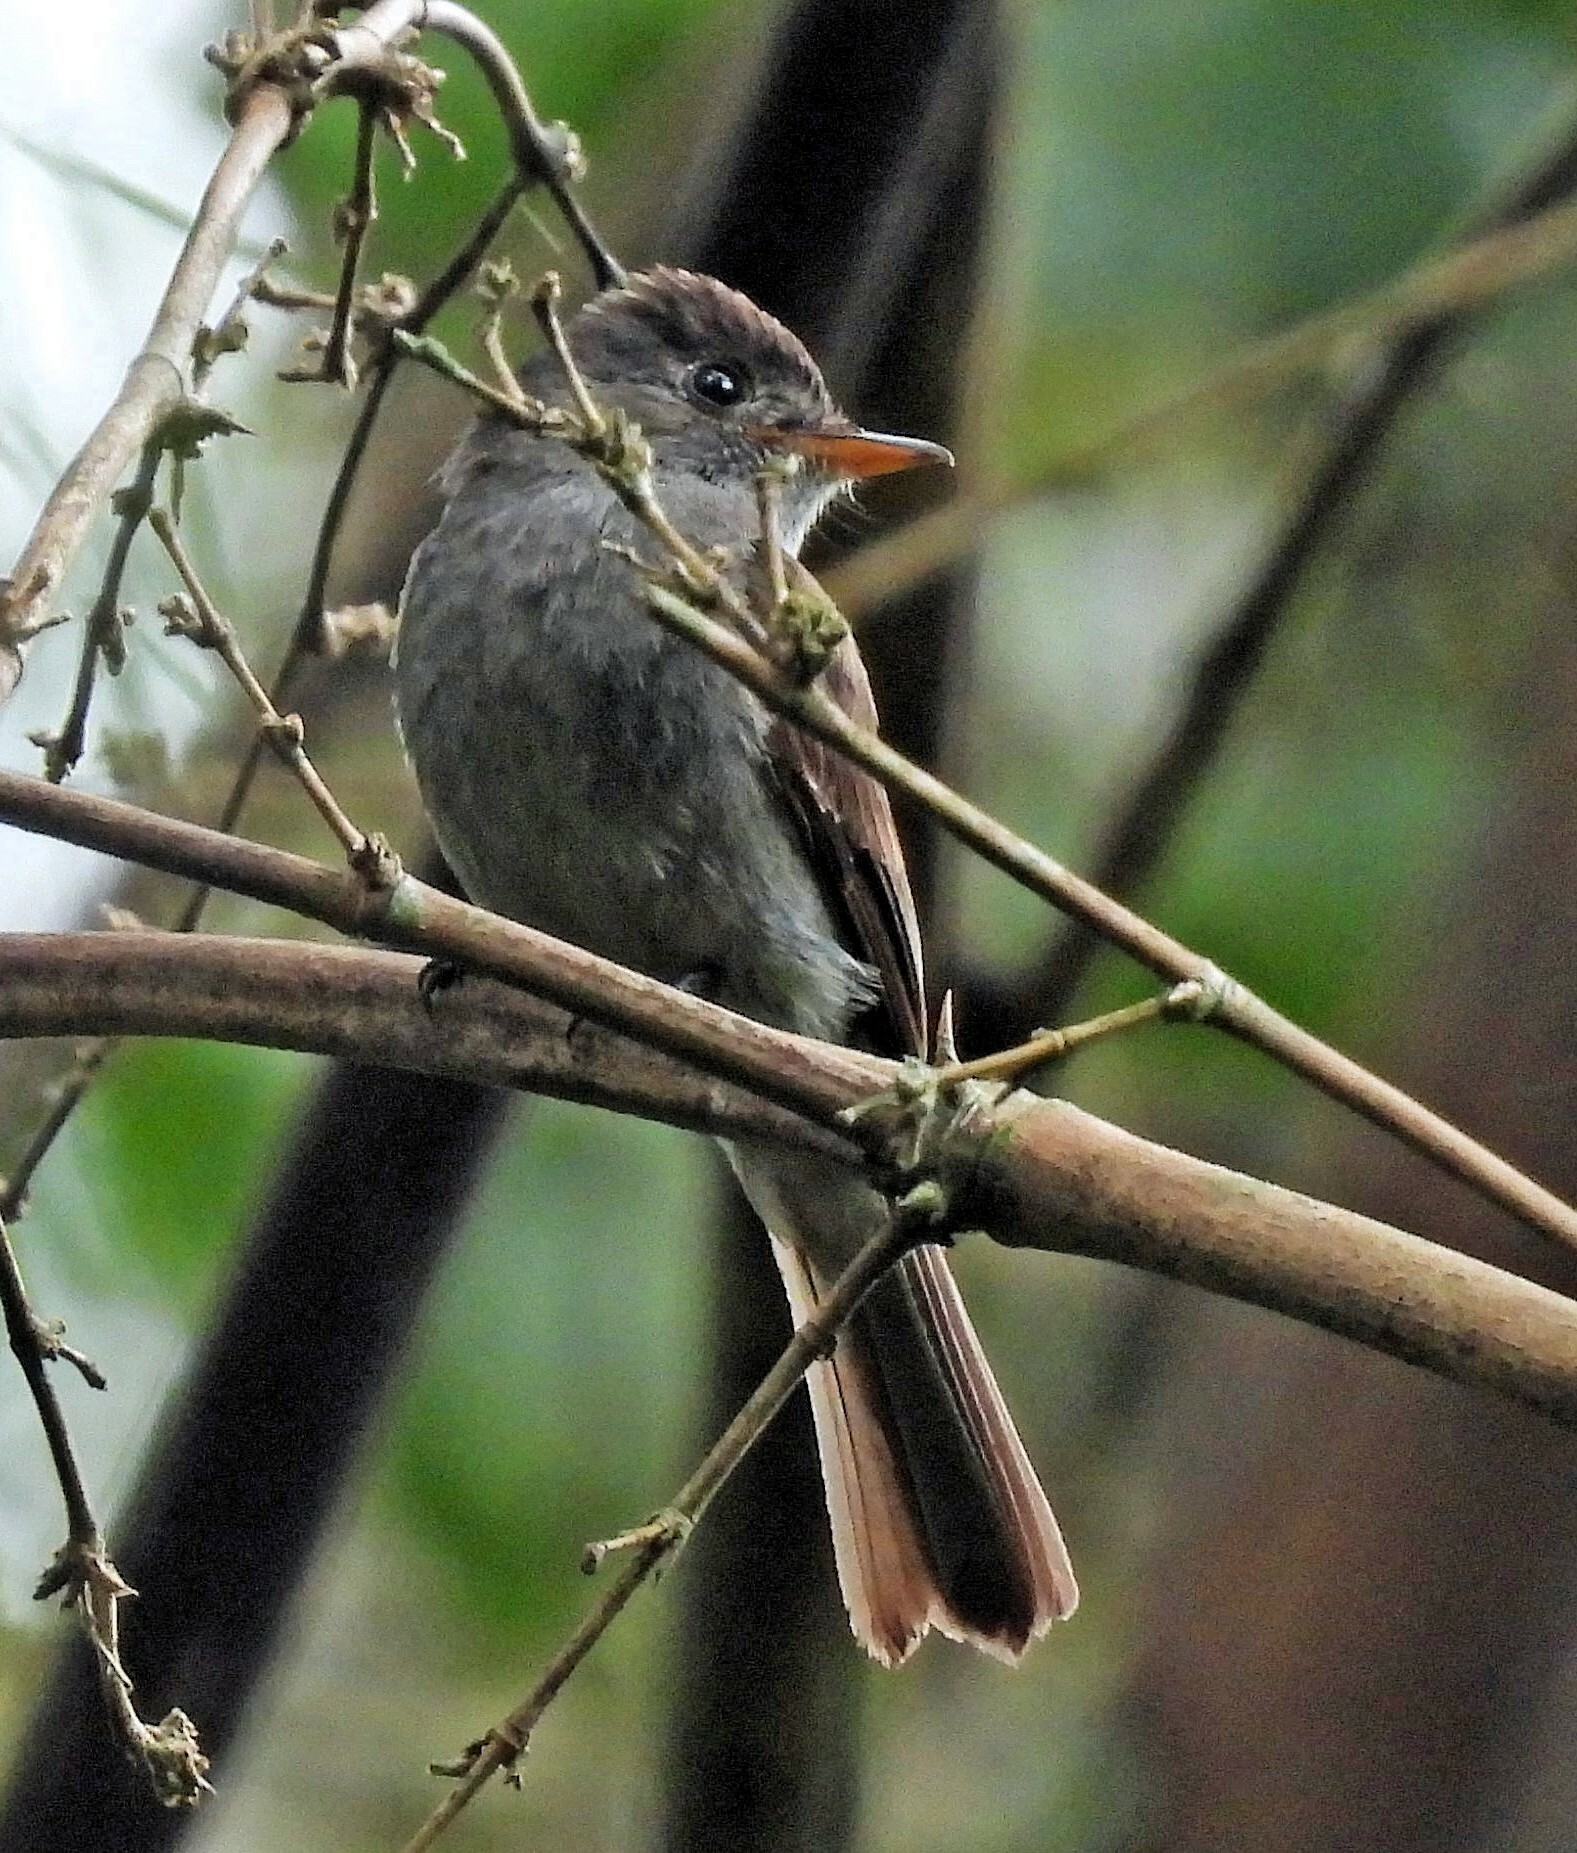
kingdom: Animalia
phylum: Chordata
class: Aves
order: Passeriformes
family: Tyrannidae
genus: Contopus
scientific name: Contopus cinereus
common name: Tropical pewee
